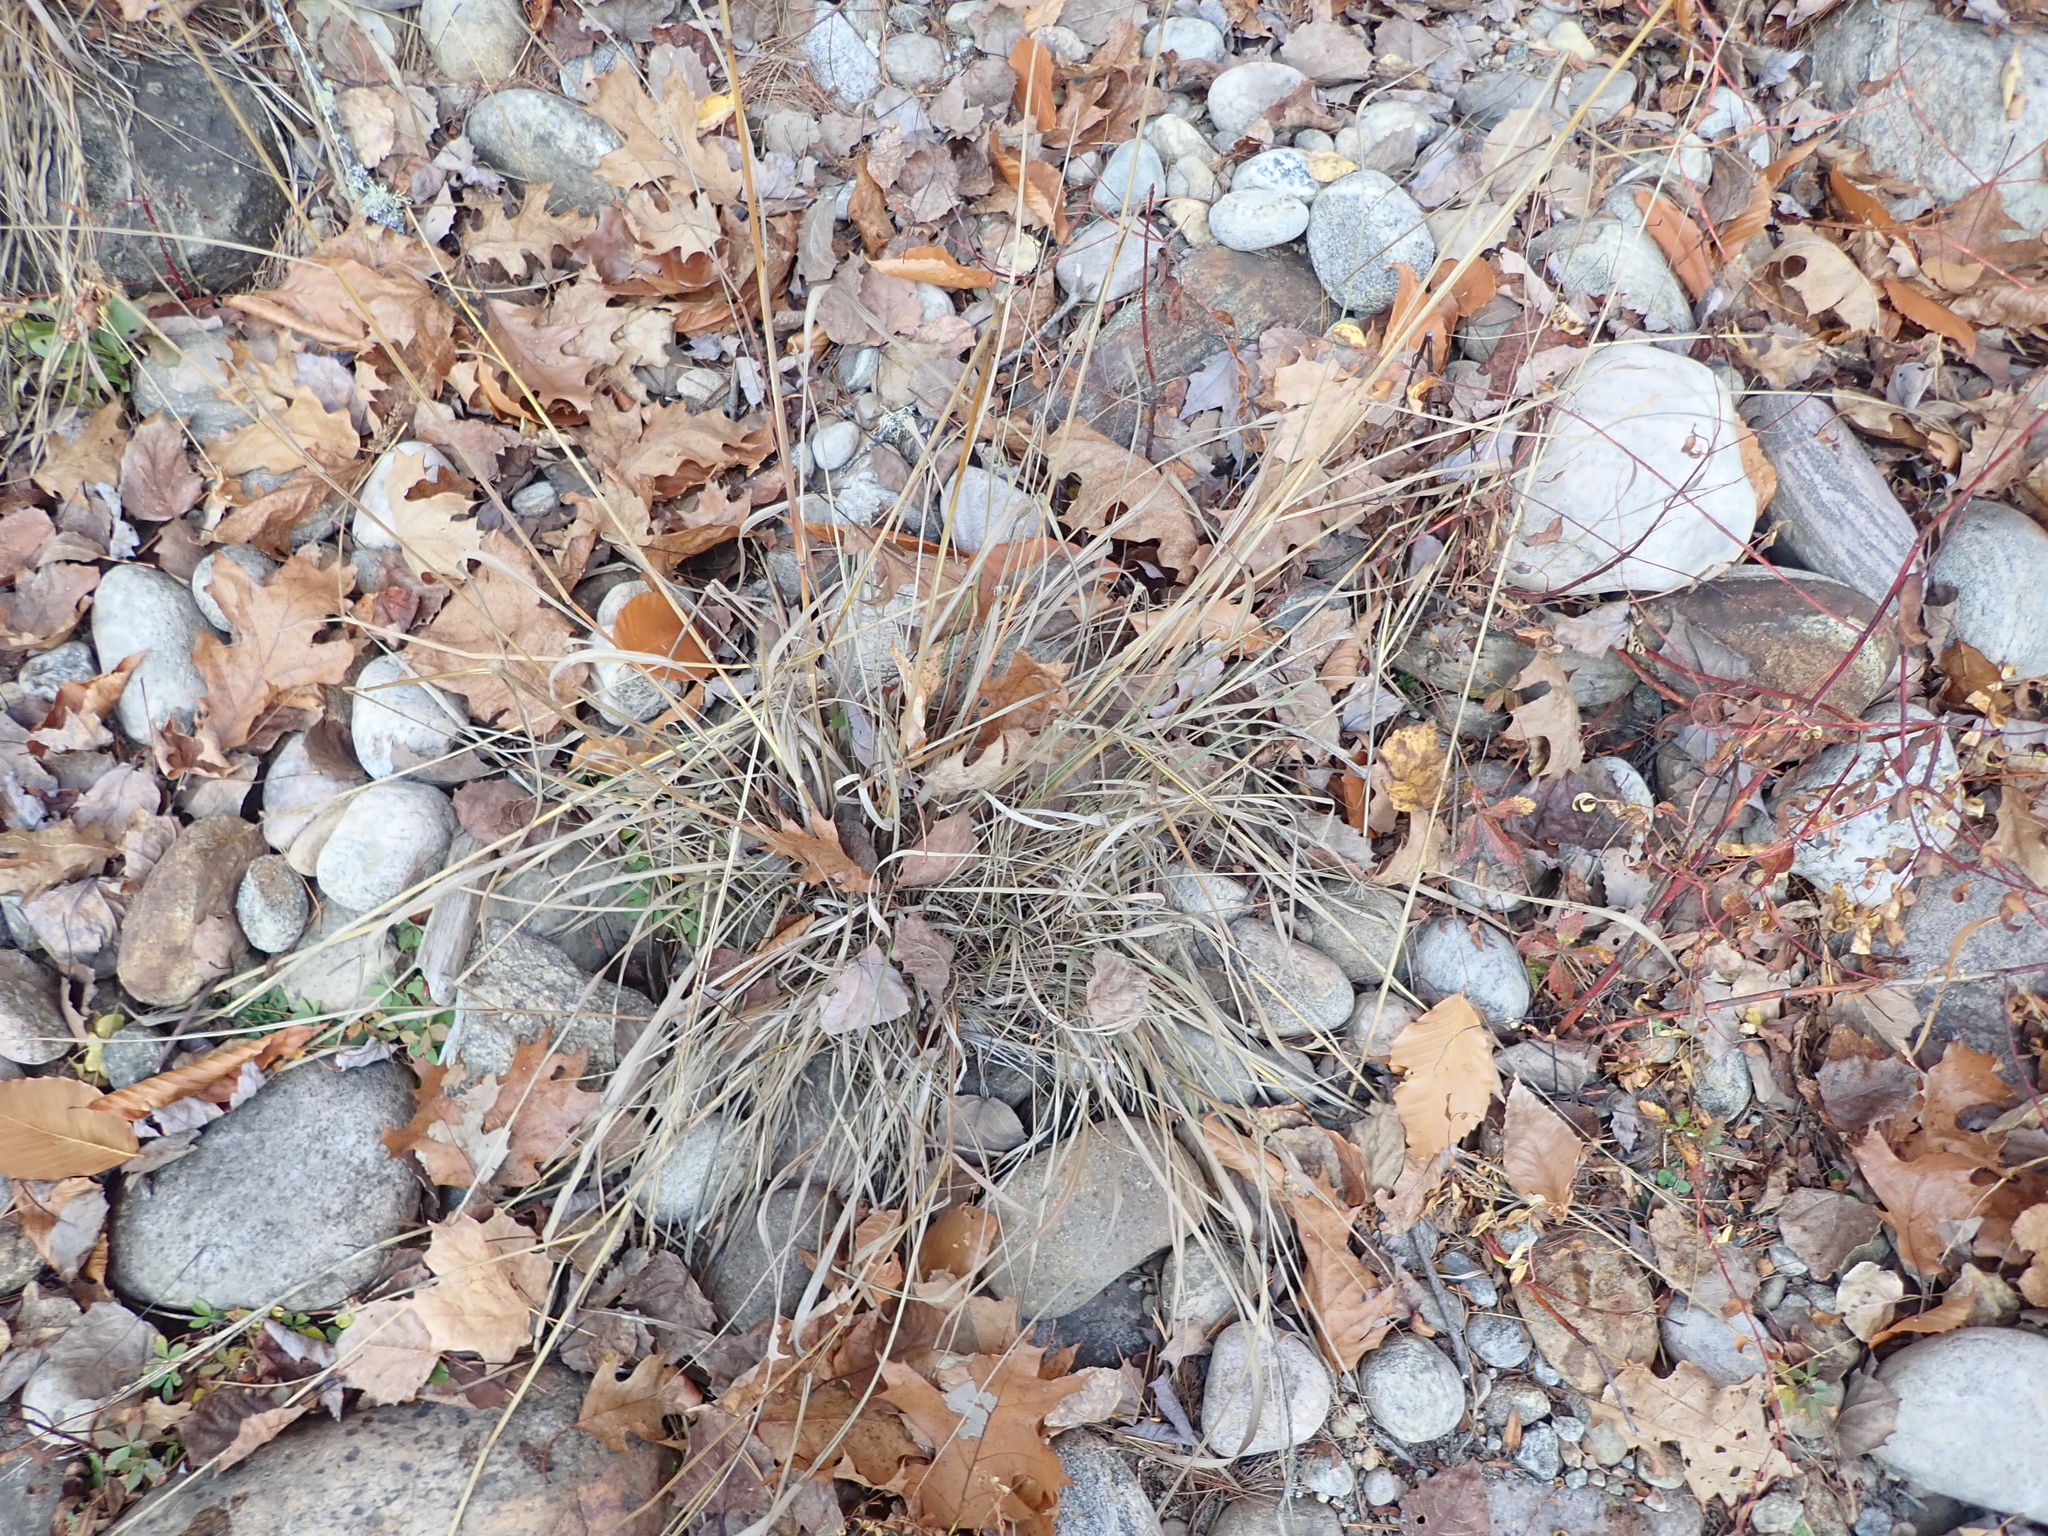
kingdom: Plantae
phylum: Tracheophyta
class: Liliopsida
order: Poales
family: Poaceae
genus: Sorghastrum
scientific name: Sorghastrum nutans
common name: Indian grass
